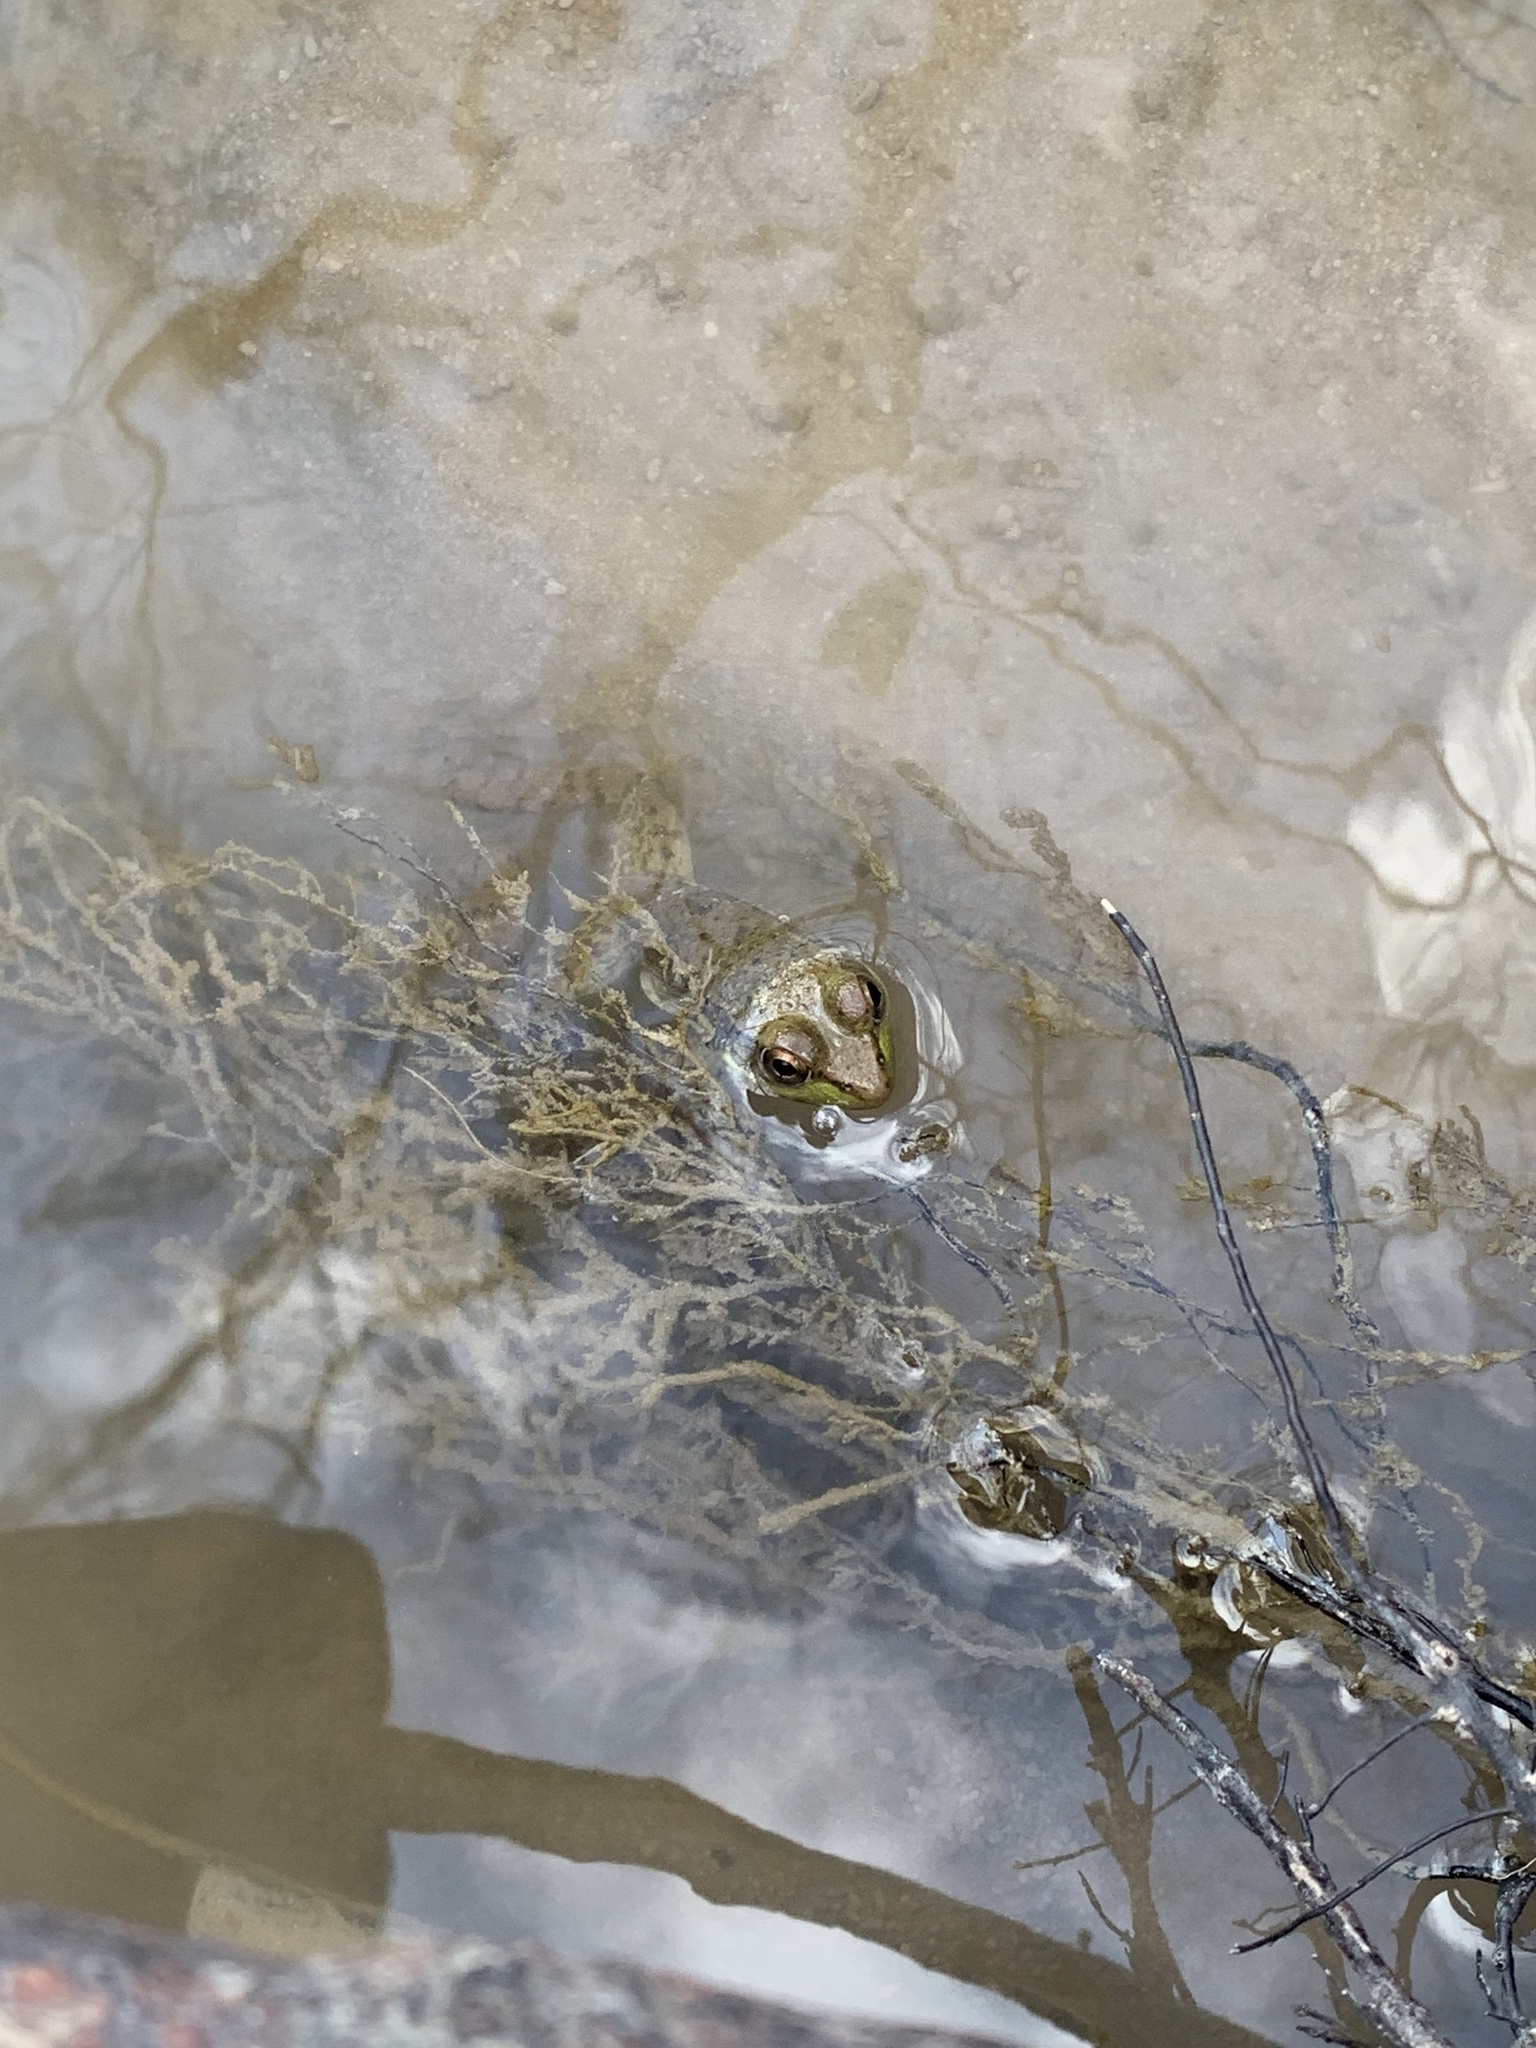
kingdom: Animalia
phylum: Chordata
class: Amphibia
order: Anura
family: Ranidae
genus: Lithobates
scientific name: Lithobates clamitans
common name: Green frog
